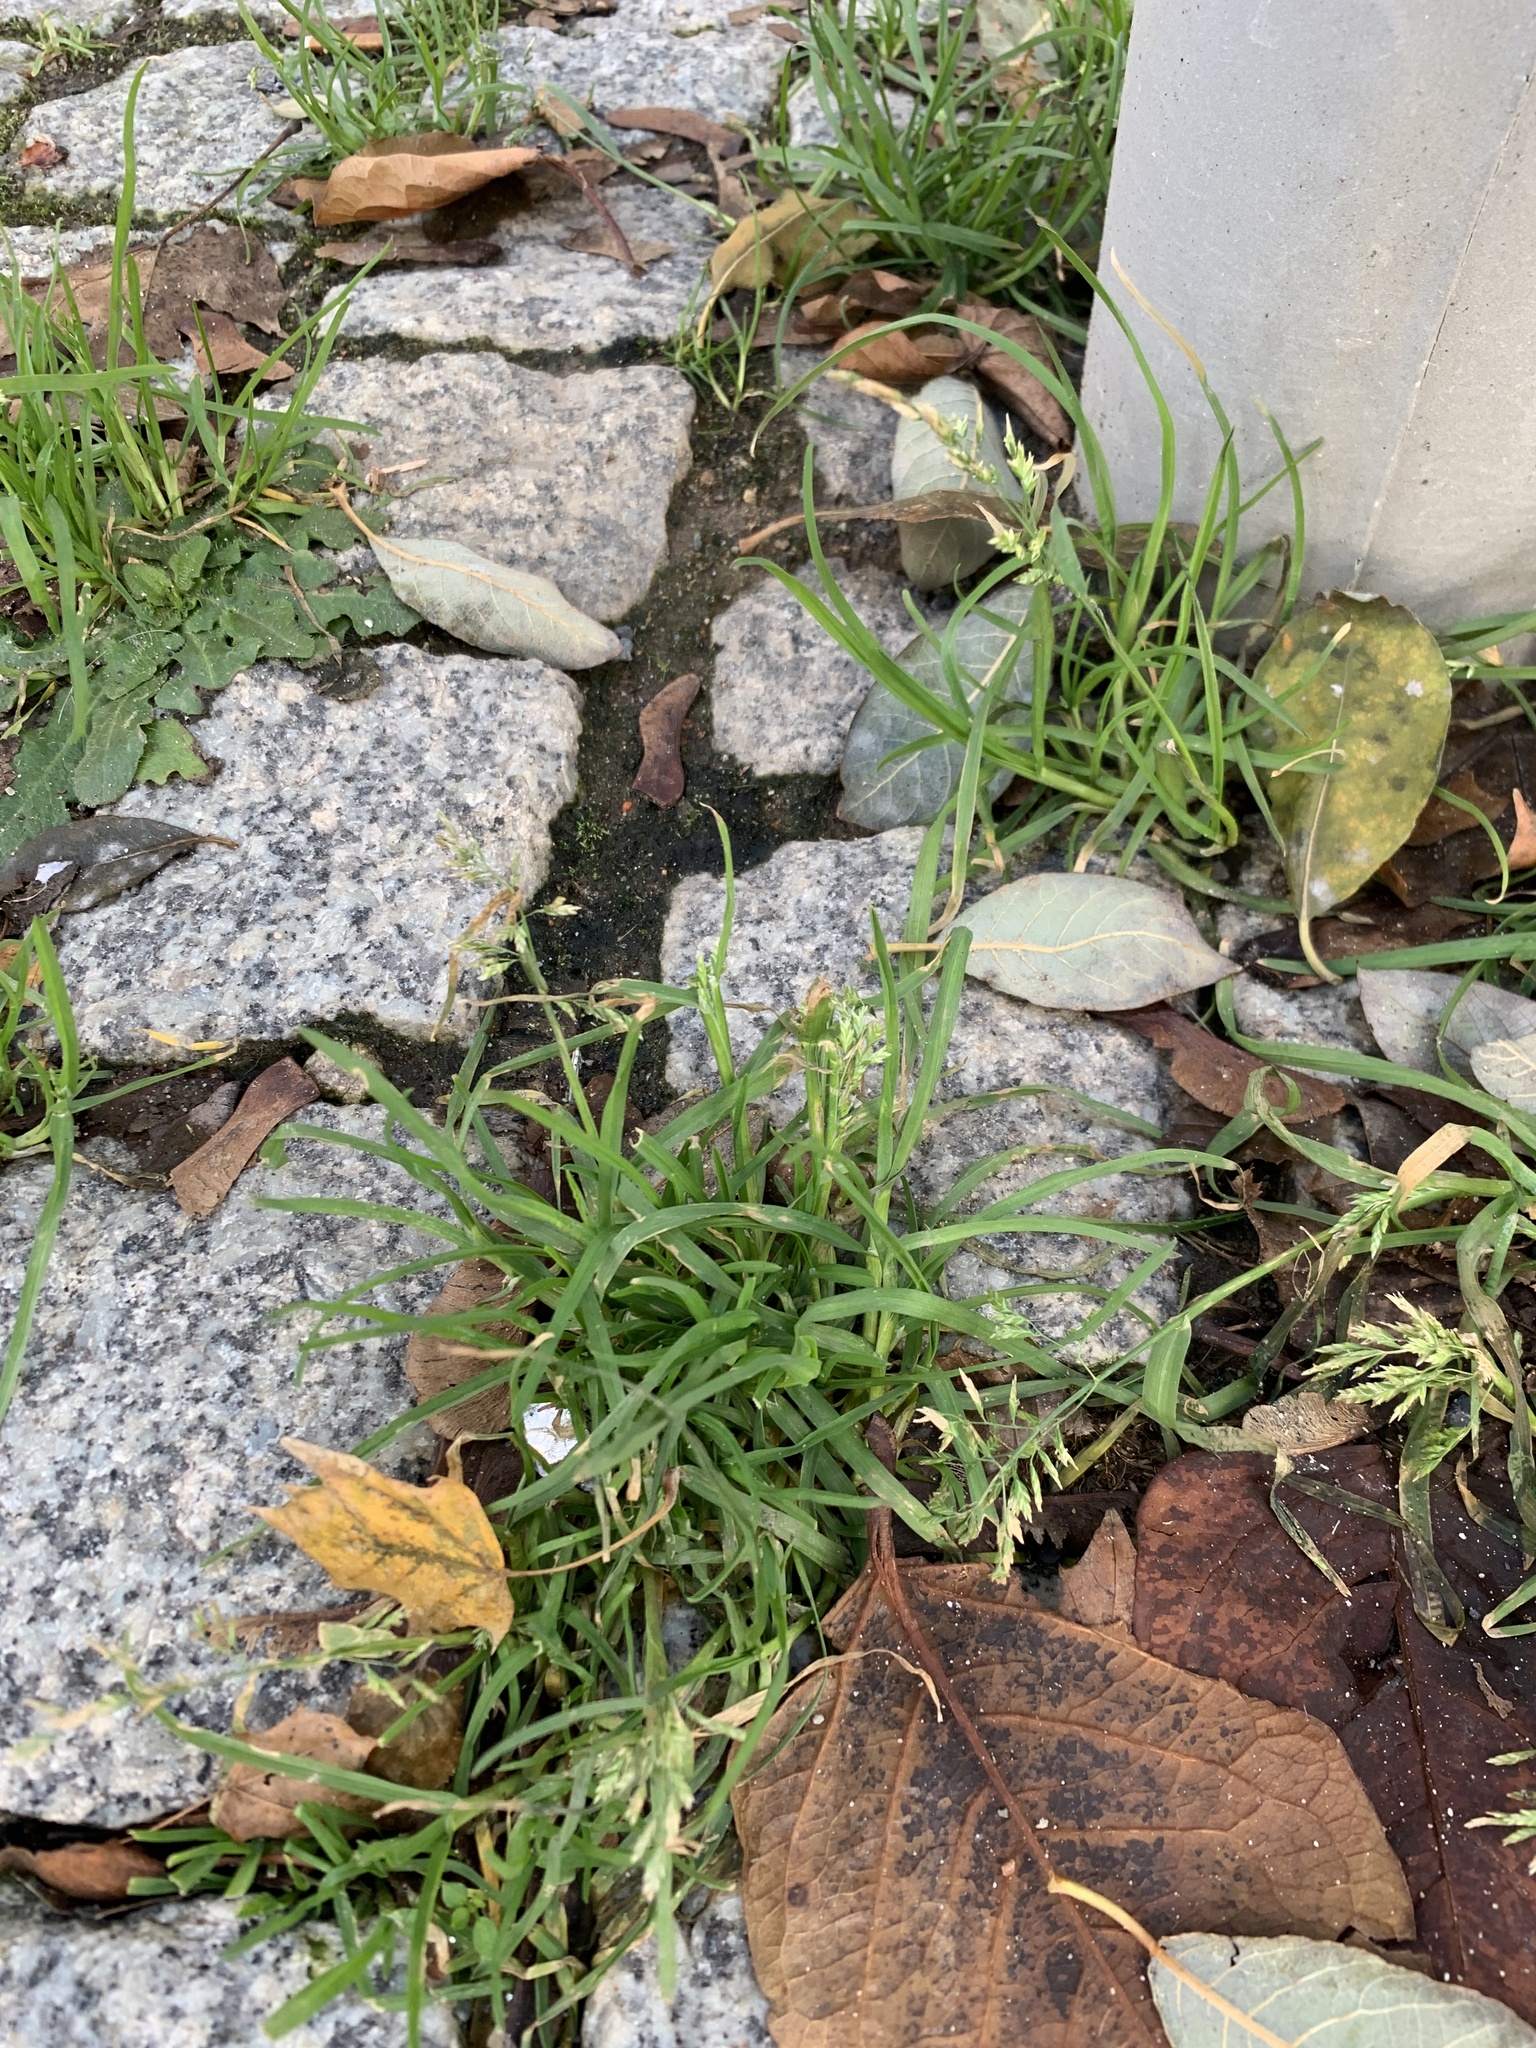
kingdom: Plantae
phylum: Tracheophyta
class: Liliopsida
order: Poales
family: Poaceae
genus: Poa
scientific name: Poa annua
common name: Annual bluegrass
